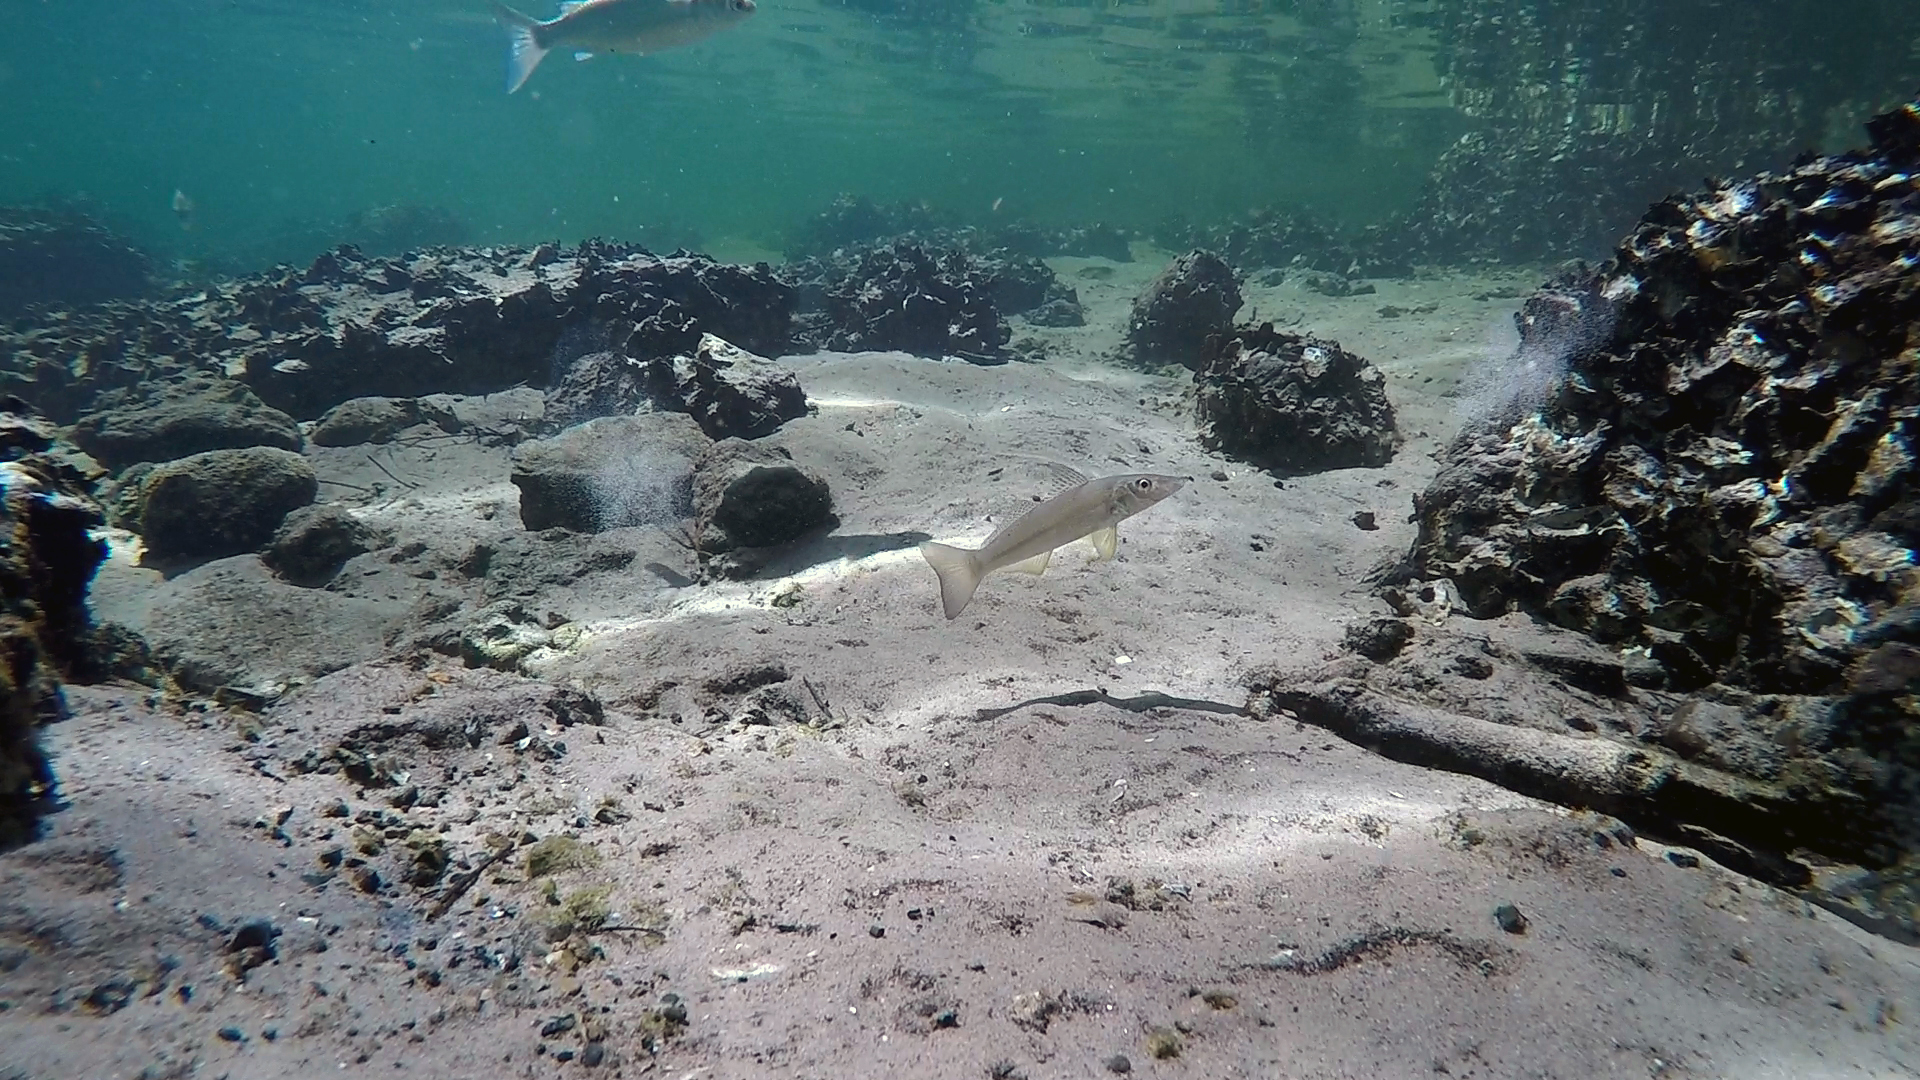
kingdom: Animalia
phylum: Chordata
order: Perciformes
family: Sillaginidae
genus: Sillago
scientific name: Sillago ciliata
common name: Sand sillago
